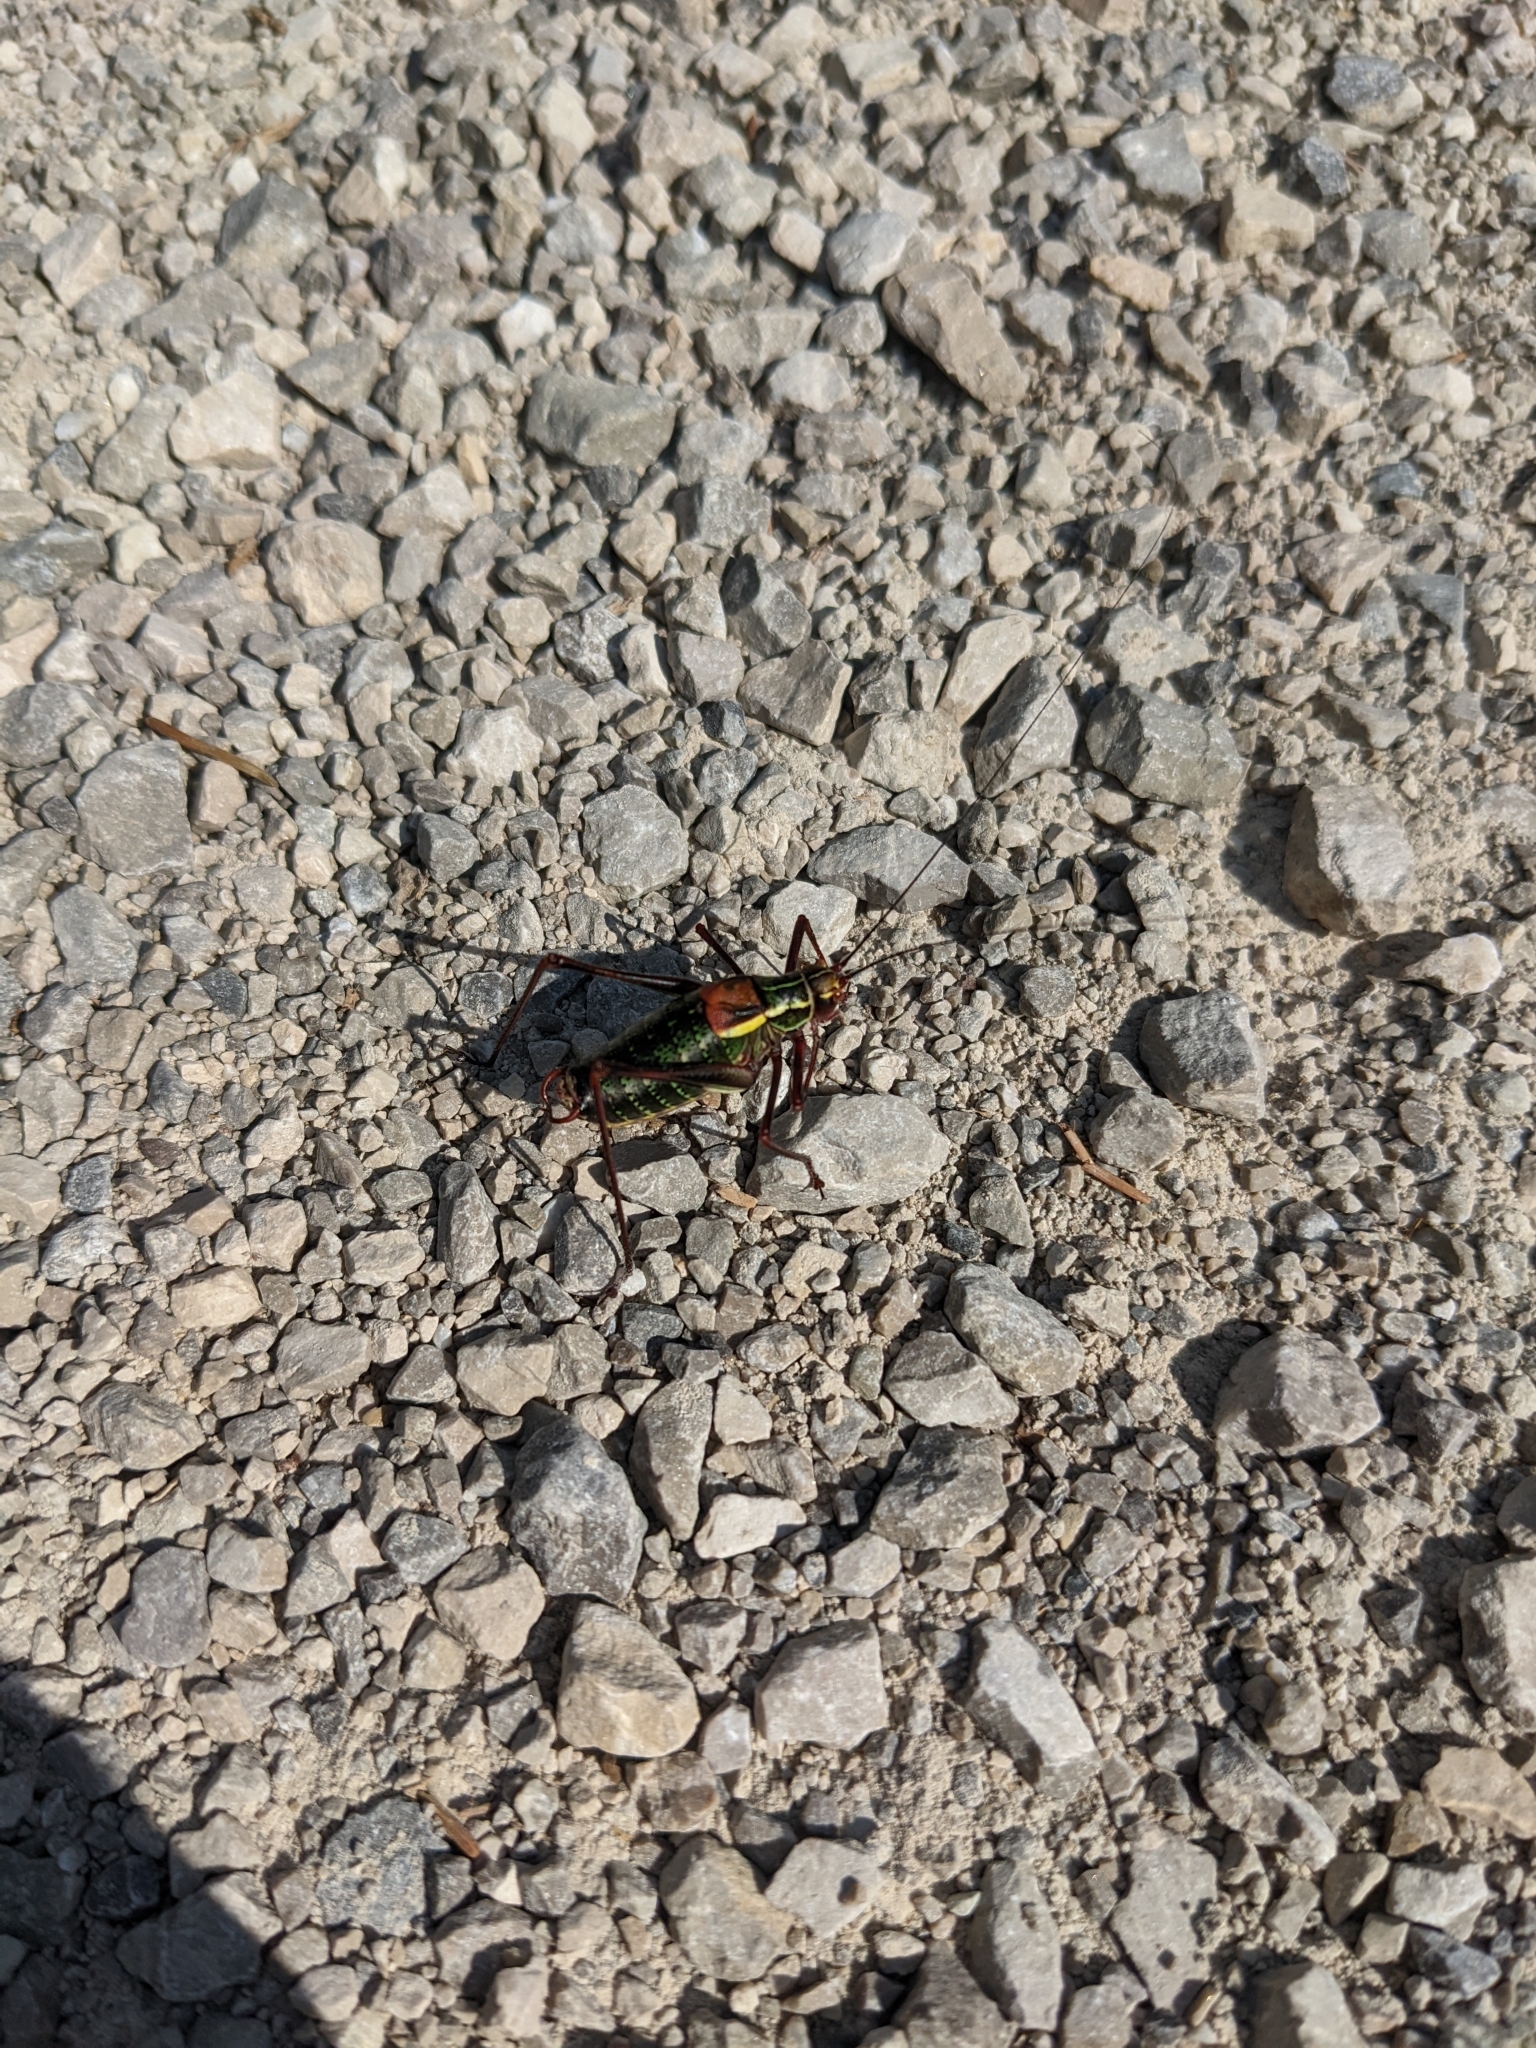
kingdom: Animalia
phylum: Arthropoda
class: Insecta
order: Orthoptera
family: Tettigoniidae
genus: Barbitistes
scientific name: Barbitistes serricauda
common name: Saw-tailed bush-cricket
